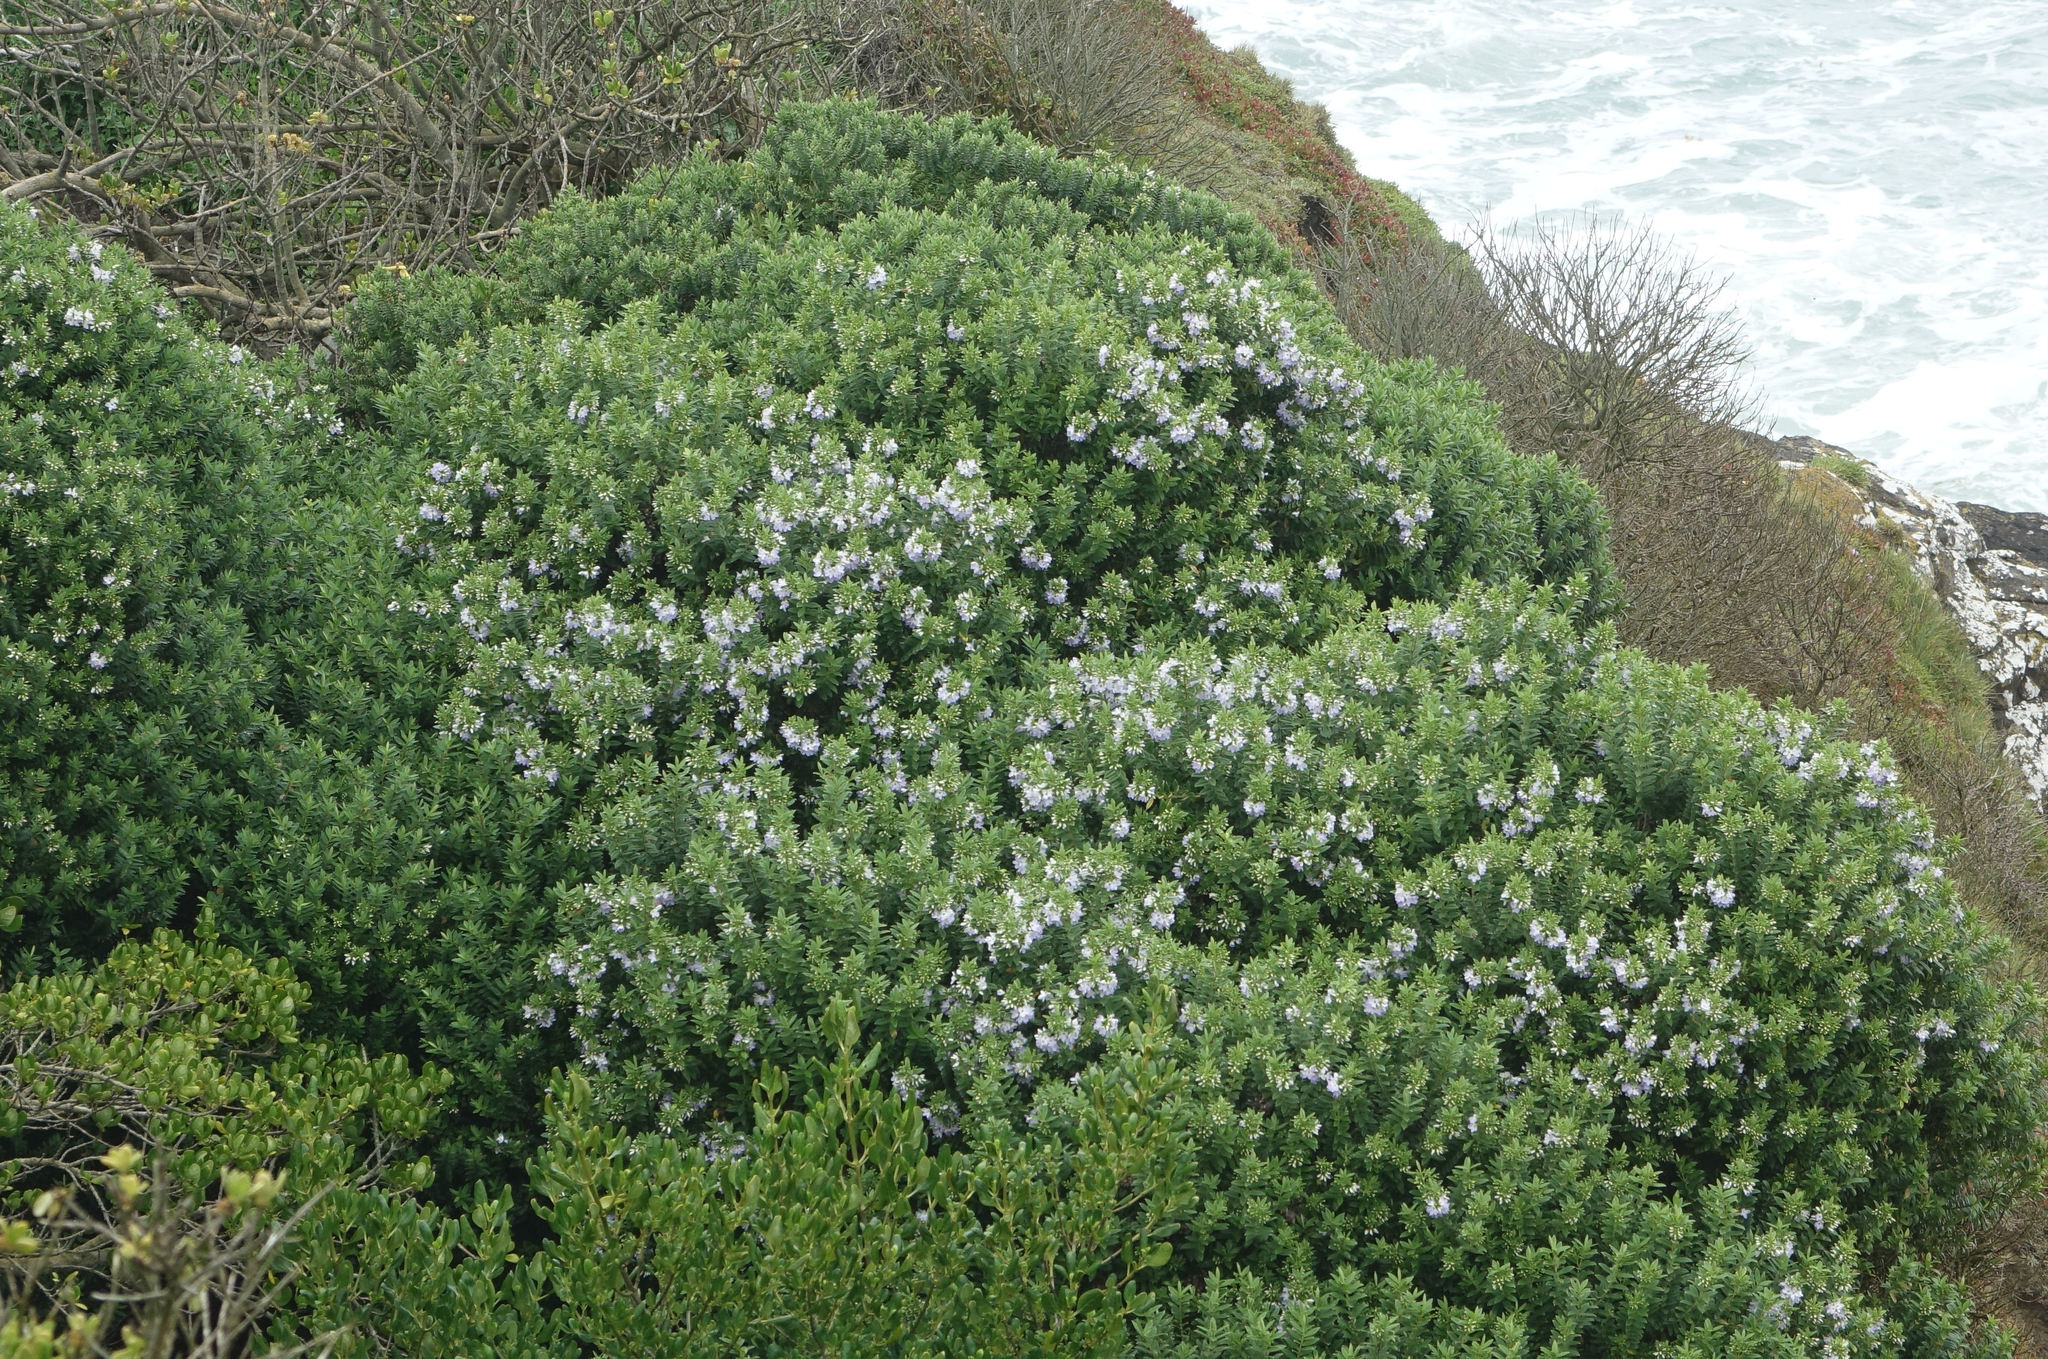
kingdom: Plantae
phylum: Tracheophyta
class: Magnoliopsida
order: Lamiales
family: Plantaginaceae
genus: Veronica
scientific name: Veronica elliptica
